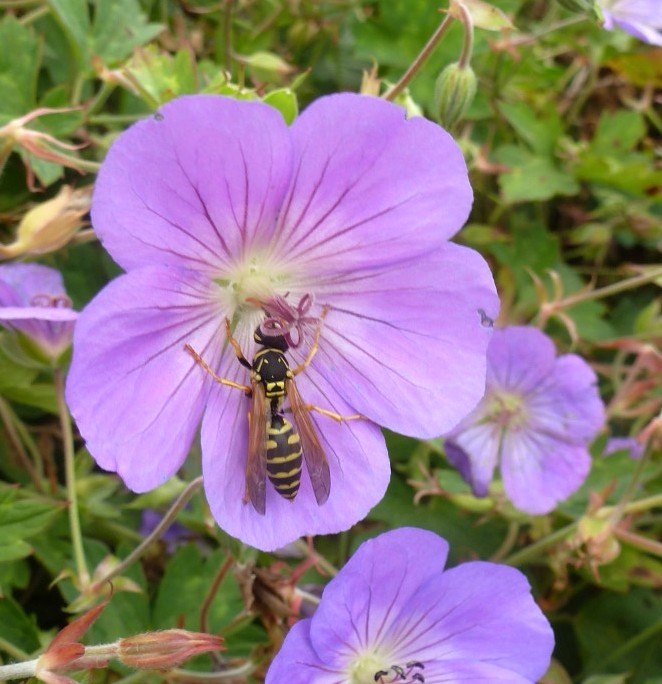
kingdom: Animalia
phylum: Arthropoda
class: Insecta
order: Hymenoptera
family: Eumenidae
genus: Polistes
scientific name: Polistes dominula
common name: Paper wasp
